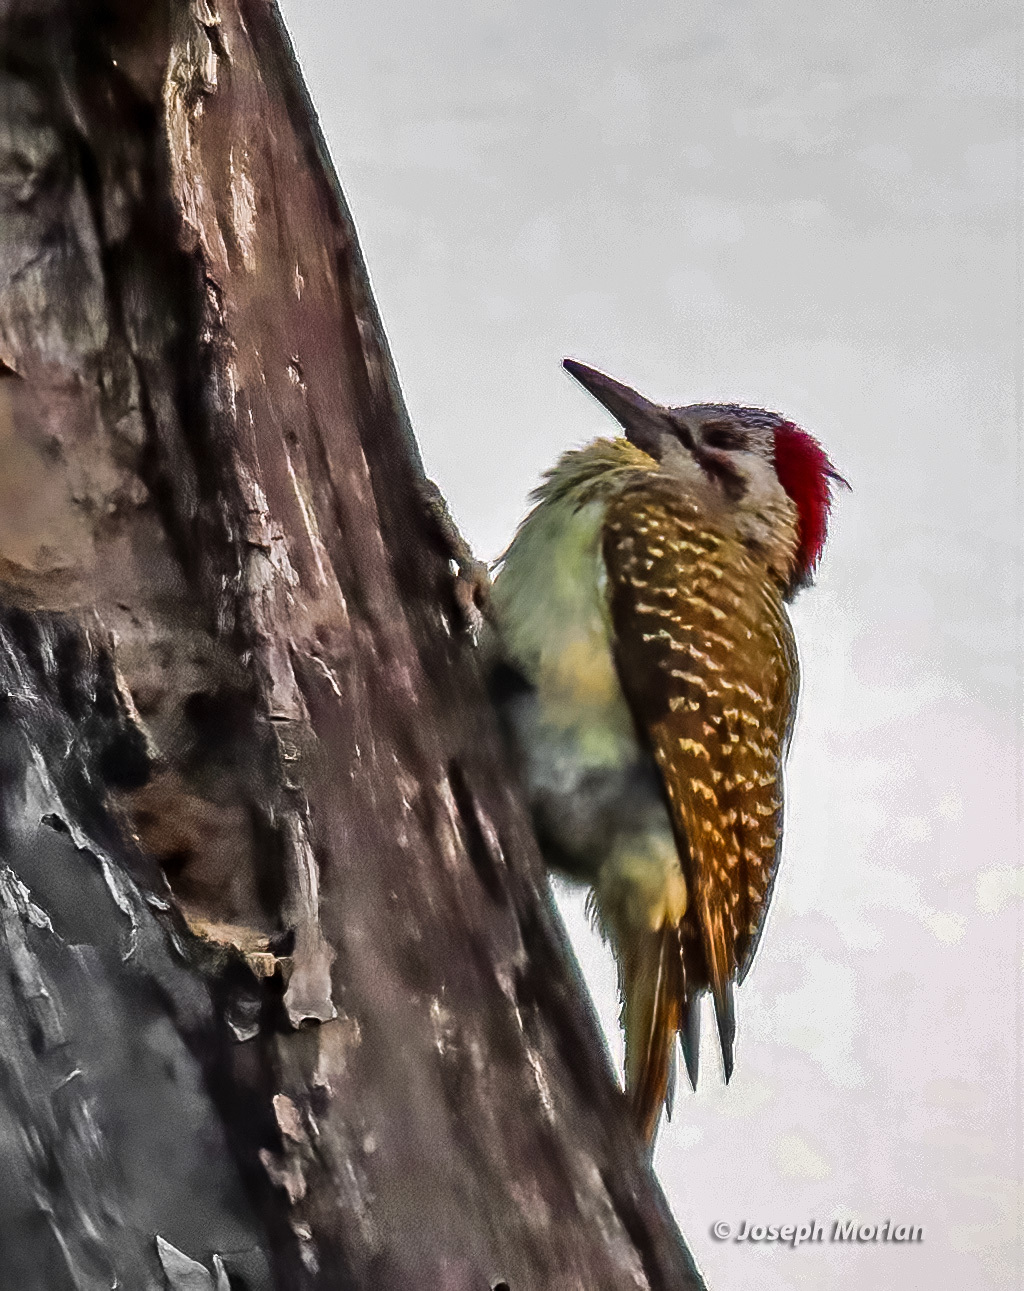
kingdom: Animalia
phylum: Chordata
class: Aves
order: Piciformes
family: Picidae
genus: Campethera
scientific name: Campethera bennettii
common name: Bennett's woodpecker
